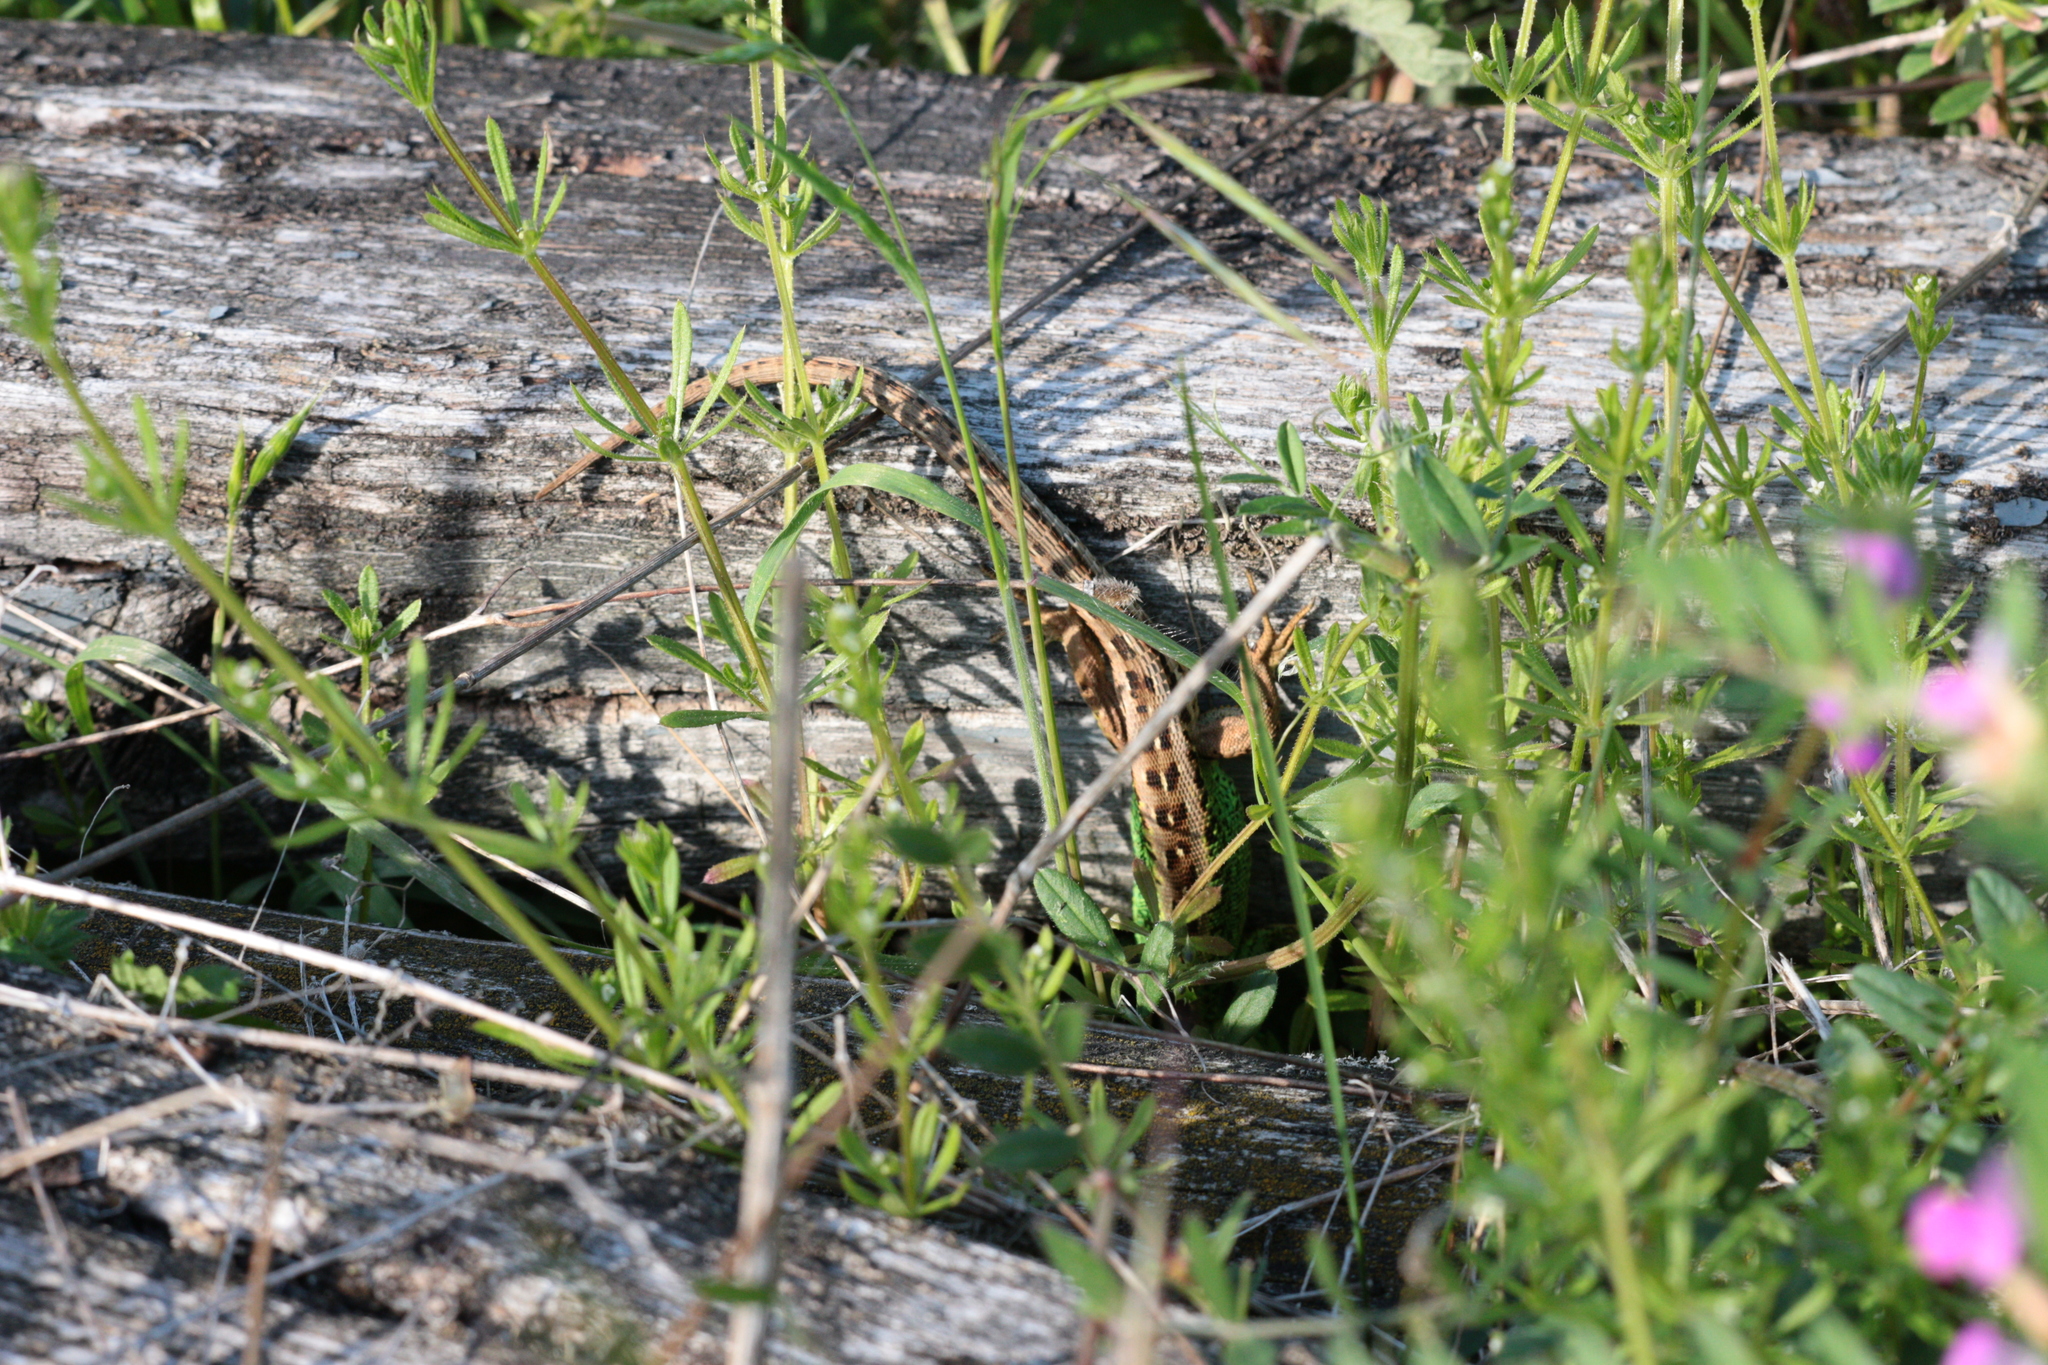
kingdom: Animalia
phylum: Chordata
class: Squamata
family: Lacertidae
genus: Lacerta
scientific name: Lacerta agilis
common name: Sand lizard
